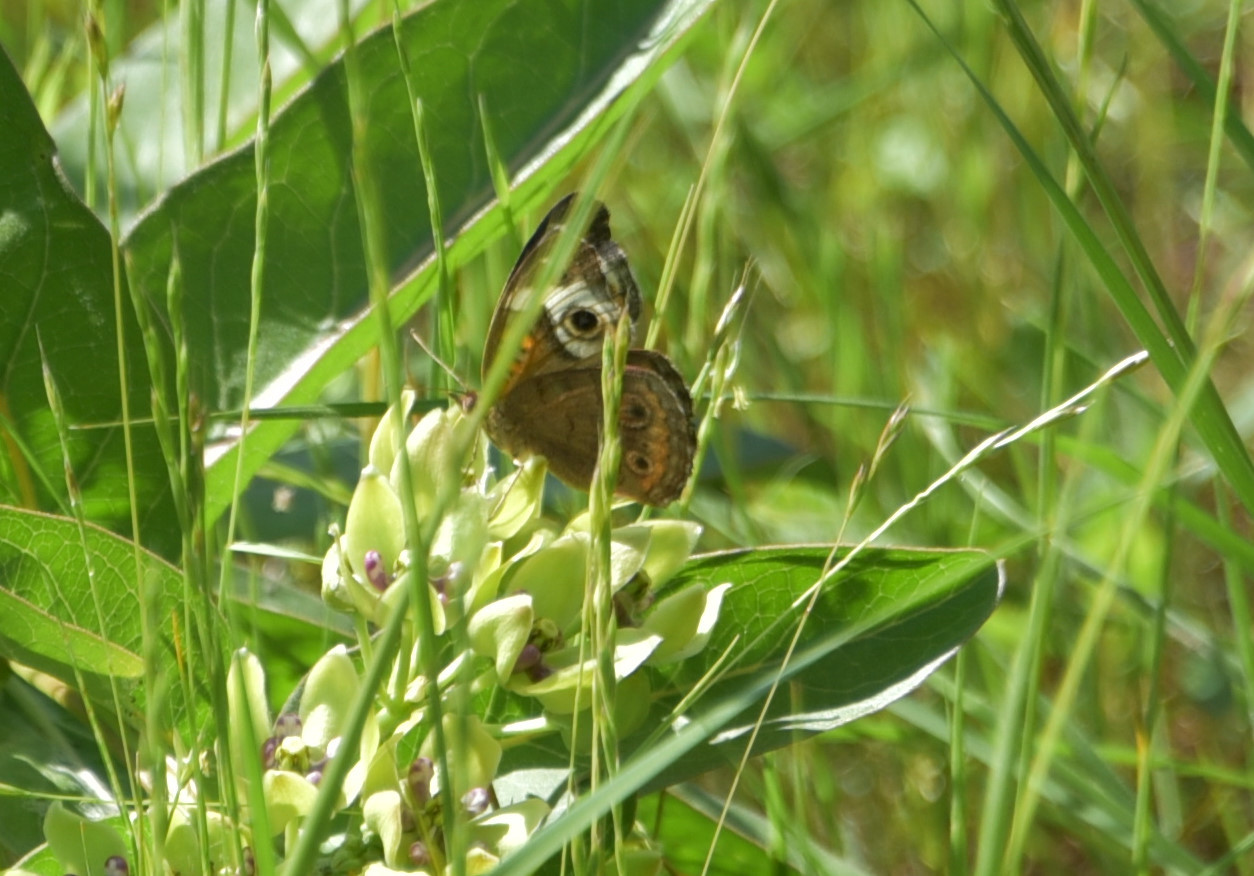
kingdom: Animalia
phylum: Arthropoda
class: Insecta
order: Lepidoptera
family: Nymphalidae
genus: Junonia
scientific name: Junonia coenia
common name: Common buckeye
